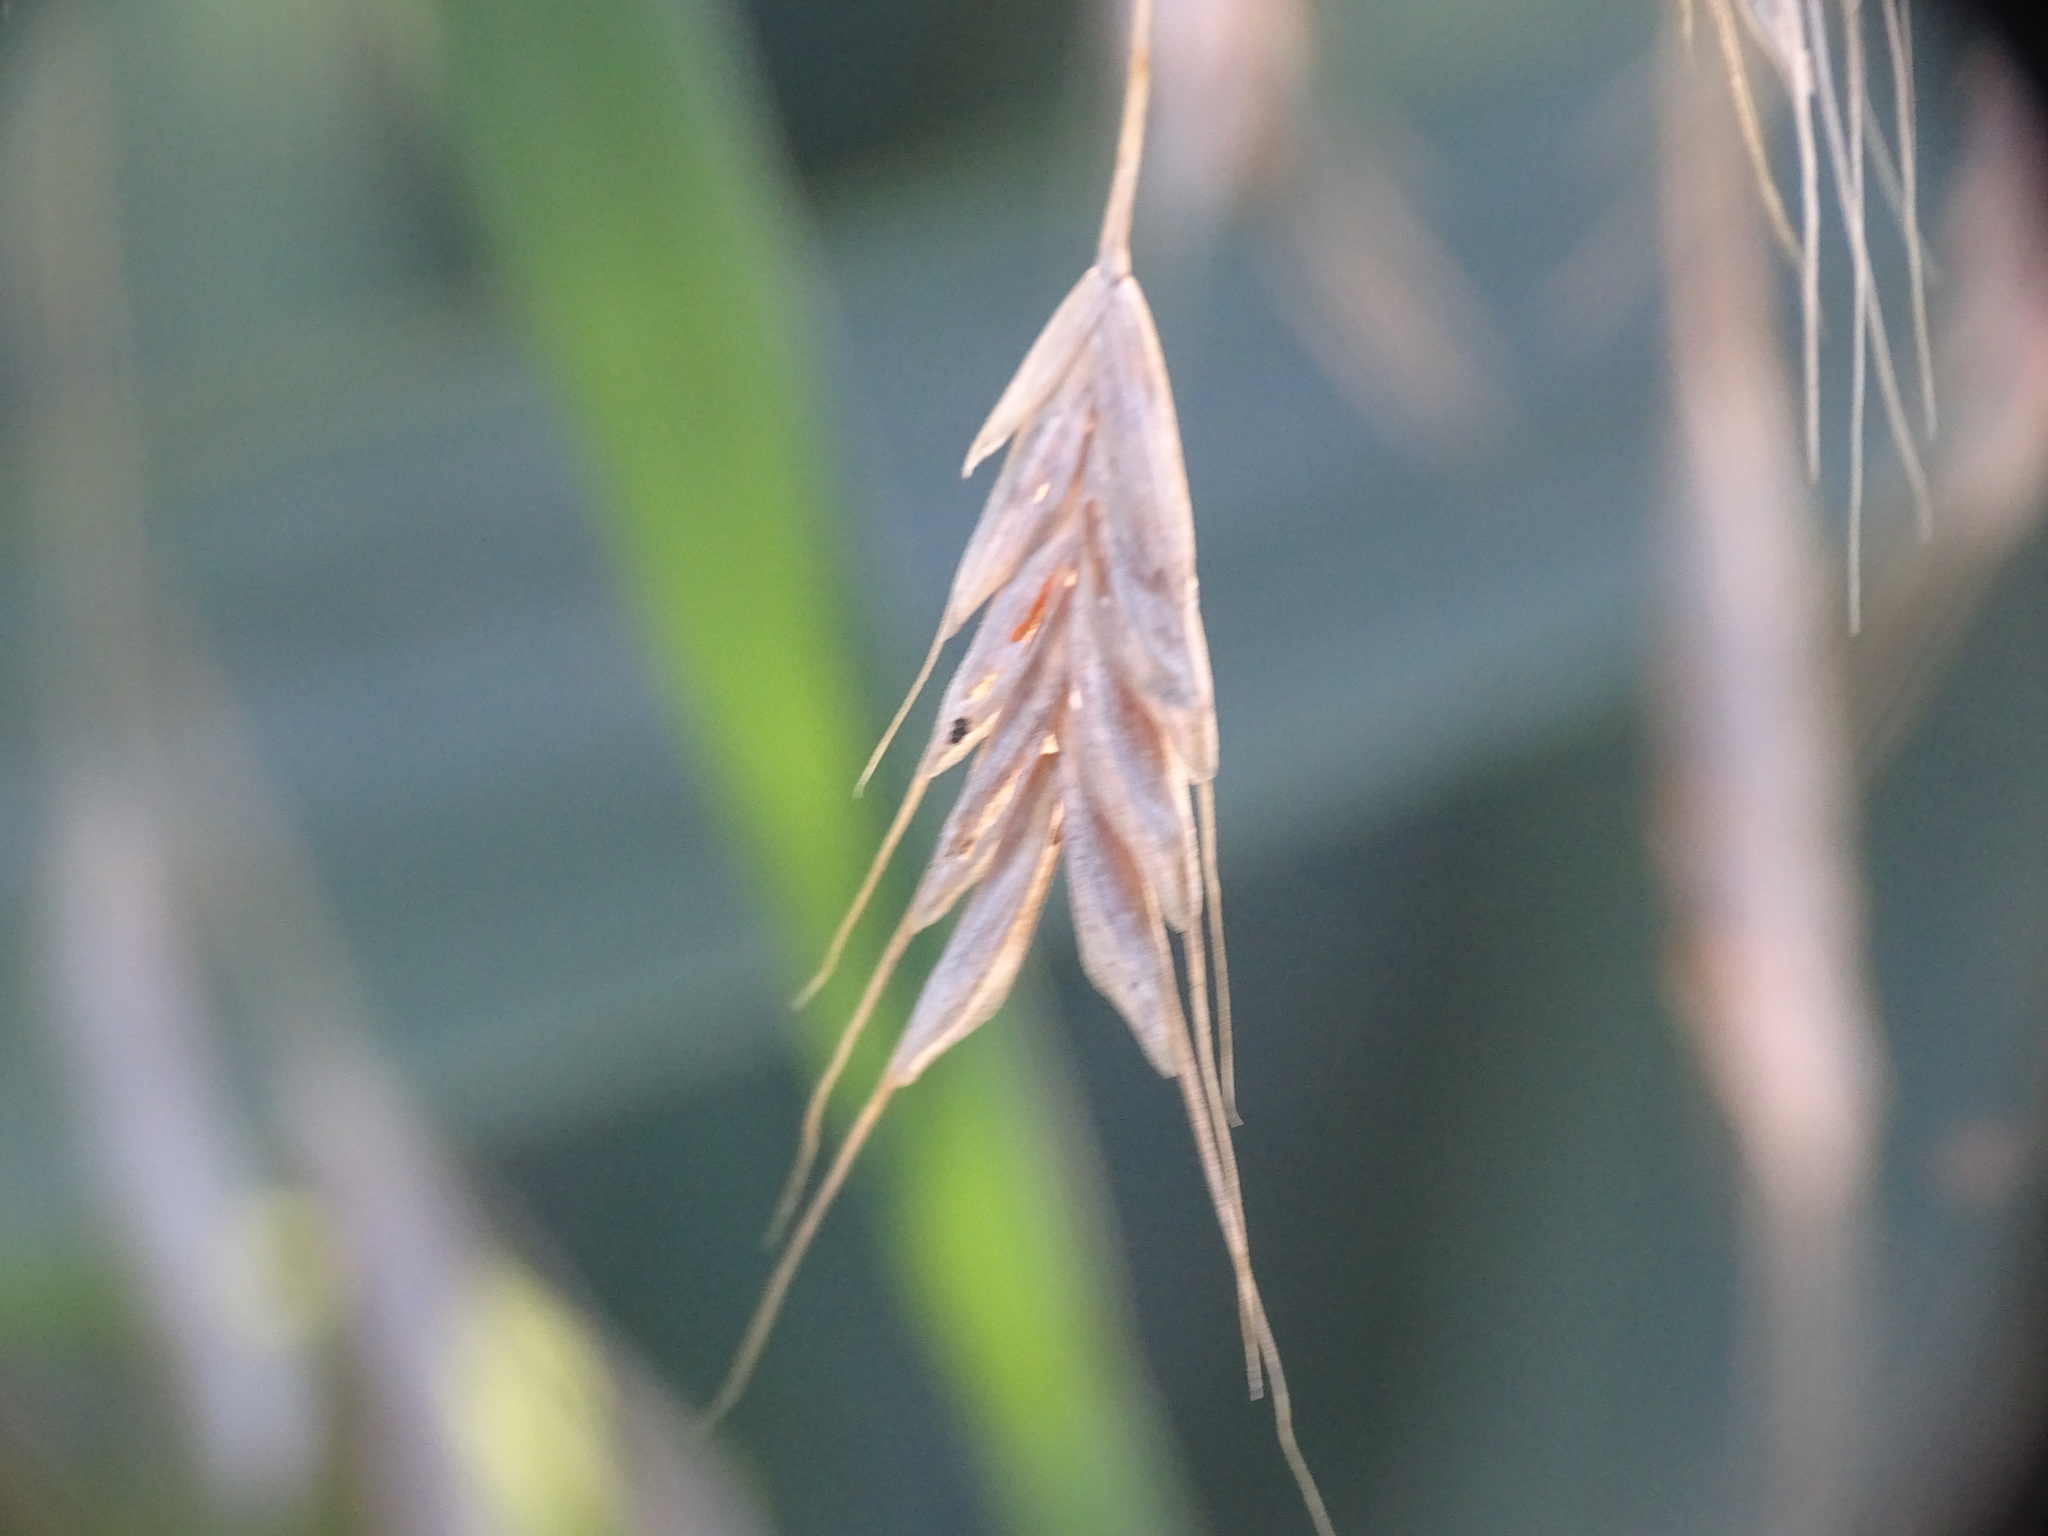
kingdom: Plantae
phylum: Tracheophyta
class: Liliopsida
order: Poales
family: Poaceae
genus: Bromus
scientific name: Bromus japonicus
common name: Japanese brome
